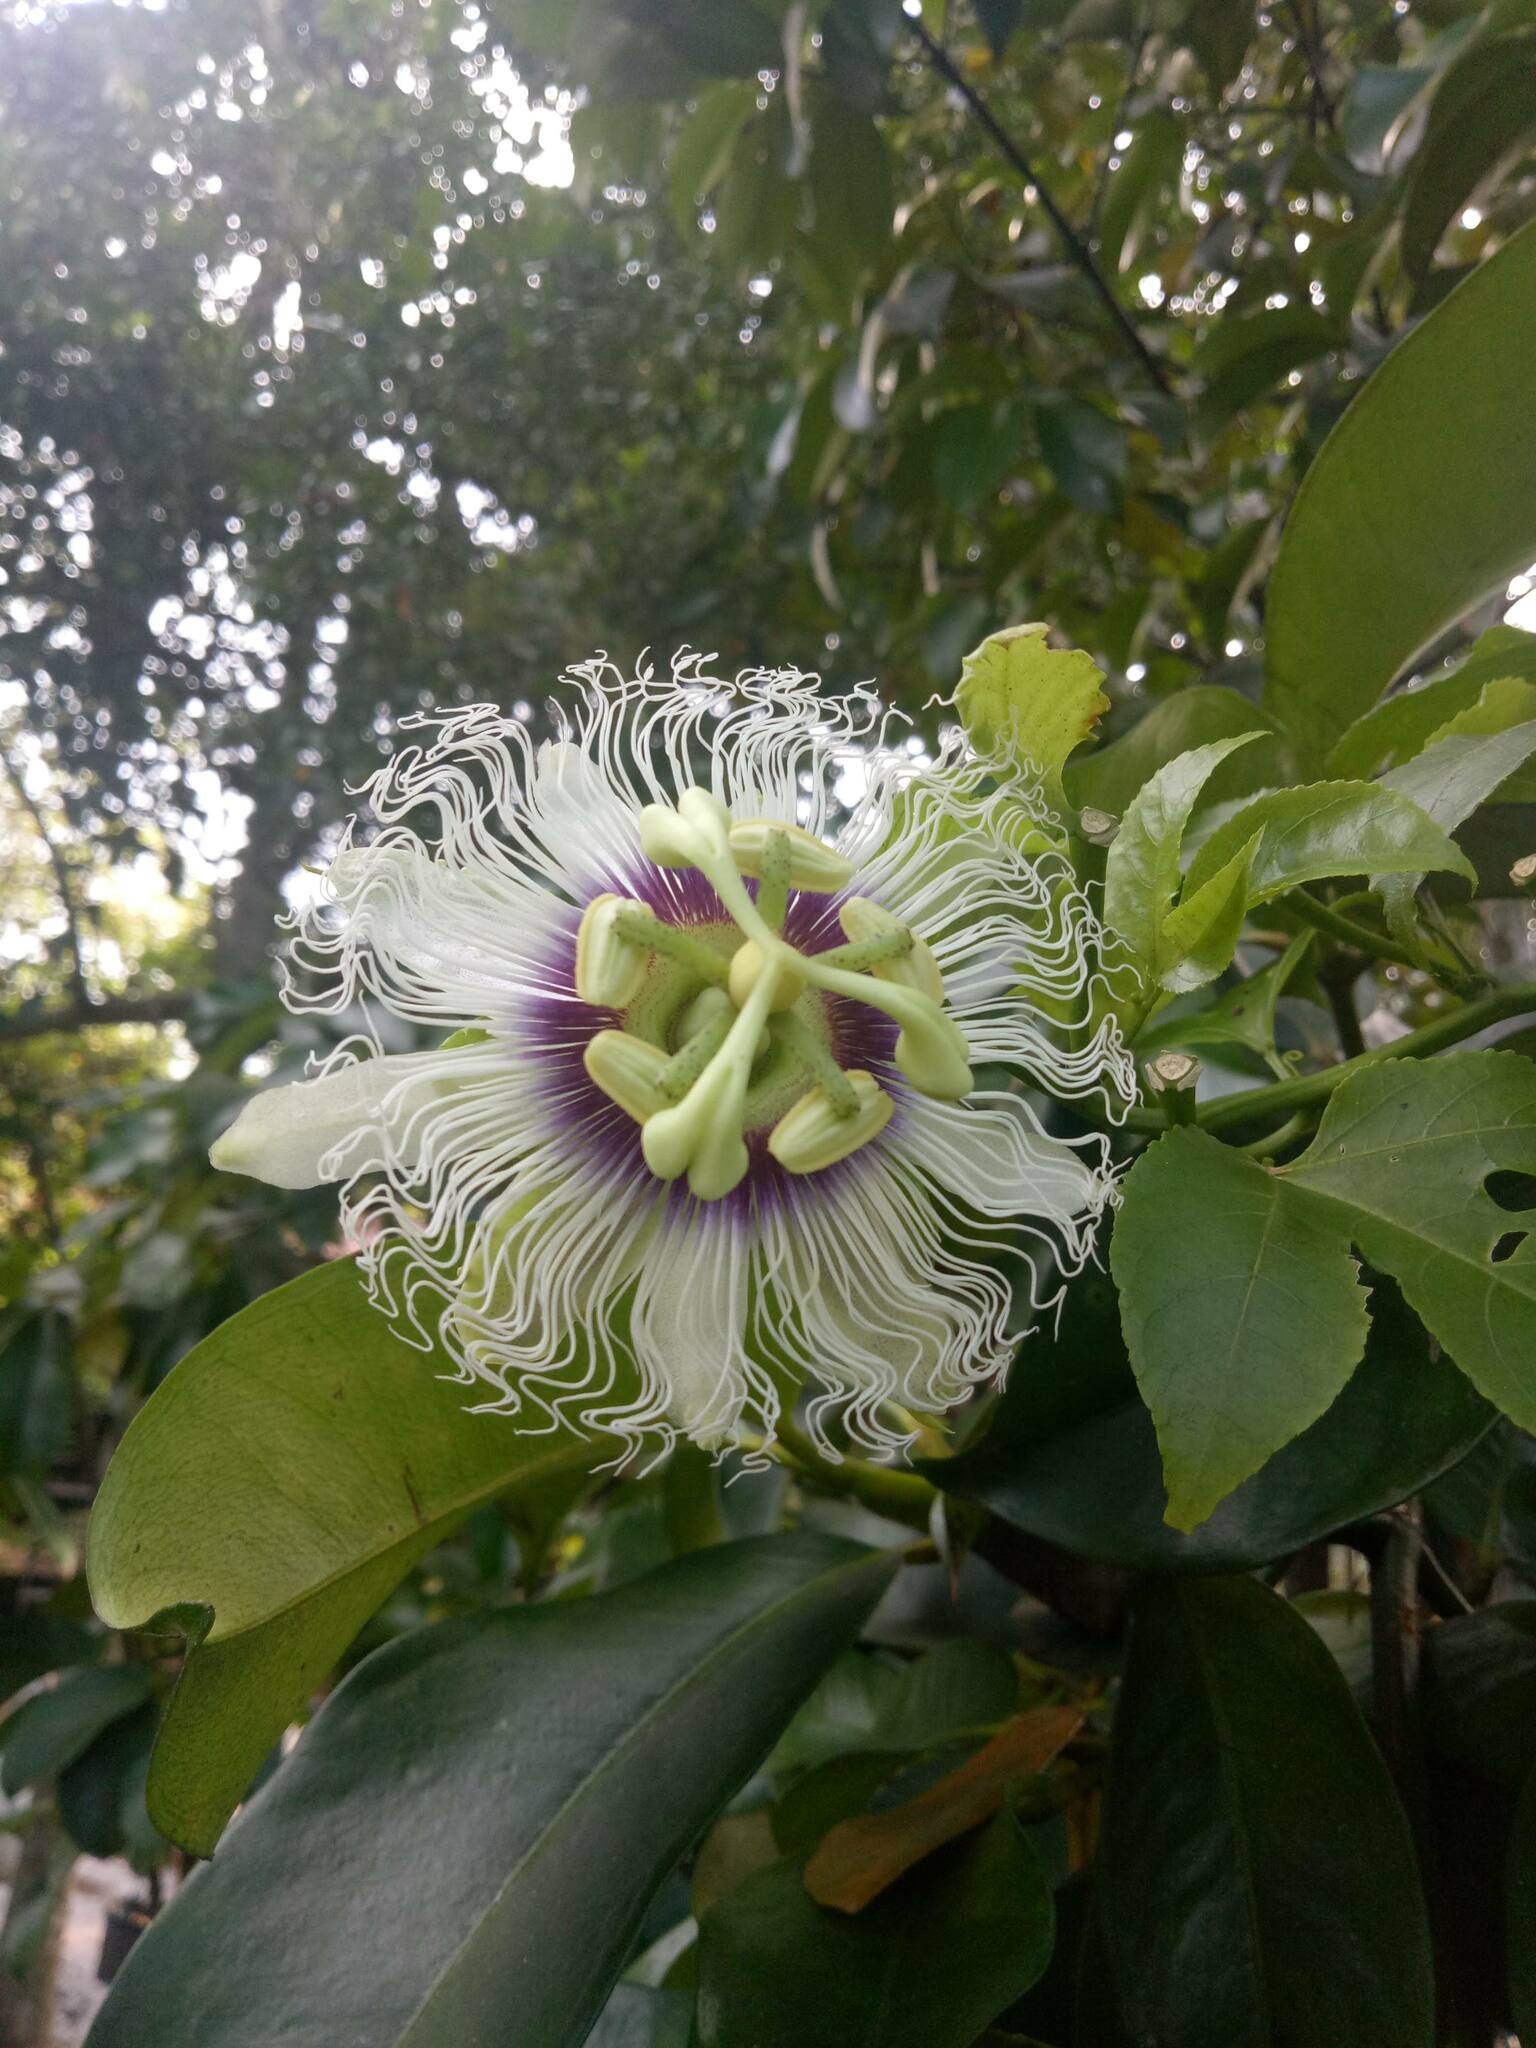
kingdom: Plantae
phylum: Tracheophyta
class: Magnoliopsida
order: Malpighiales
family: Passifloraceae
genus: Passiflora
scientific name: Passiflora edulis
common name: Purple granadilla
